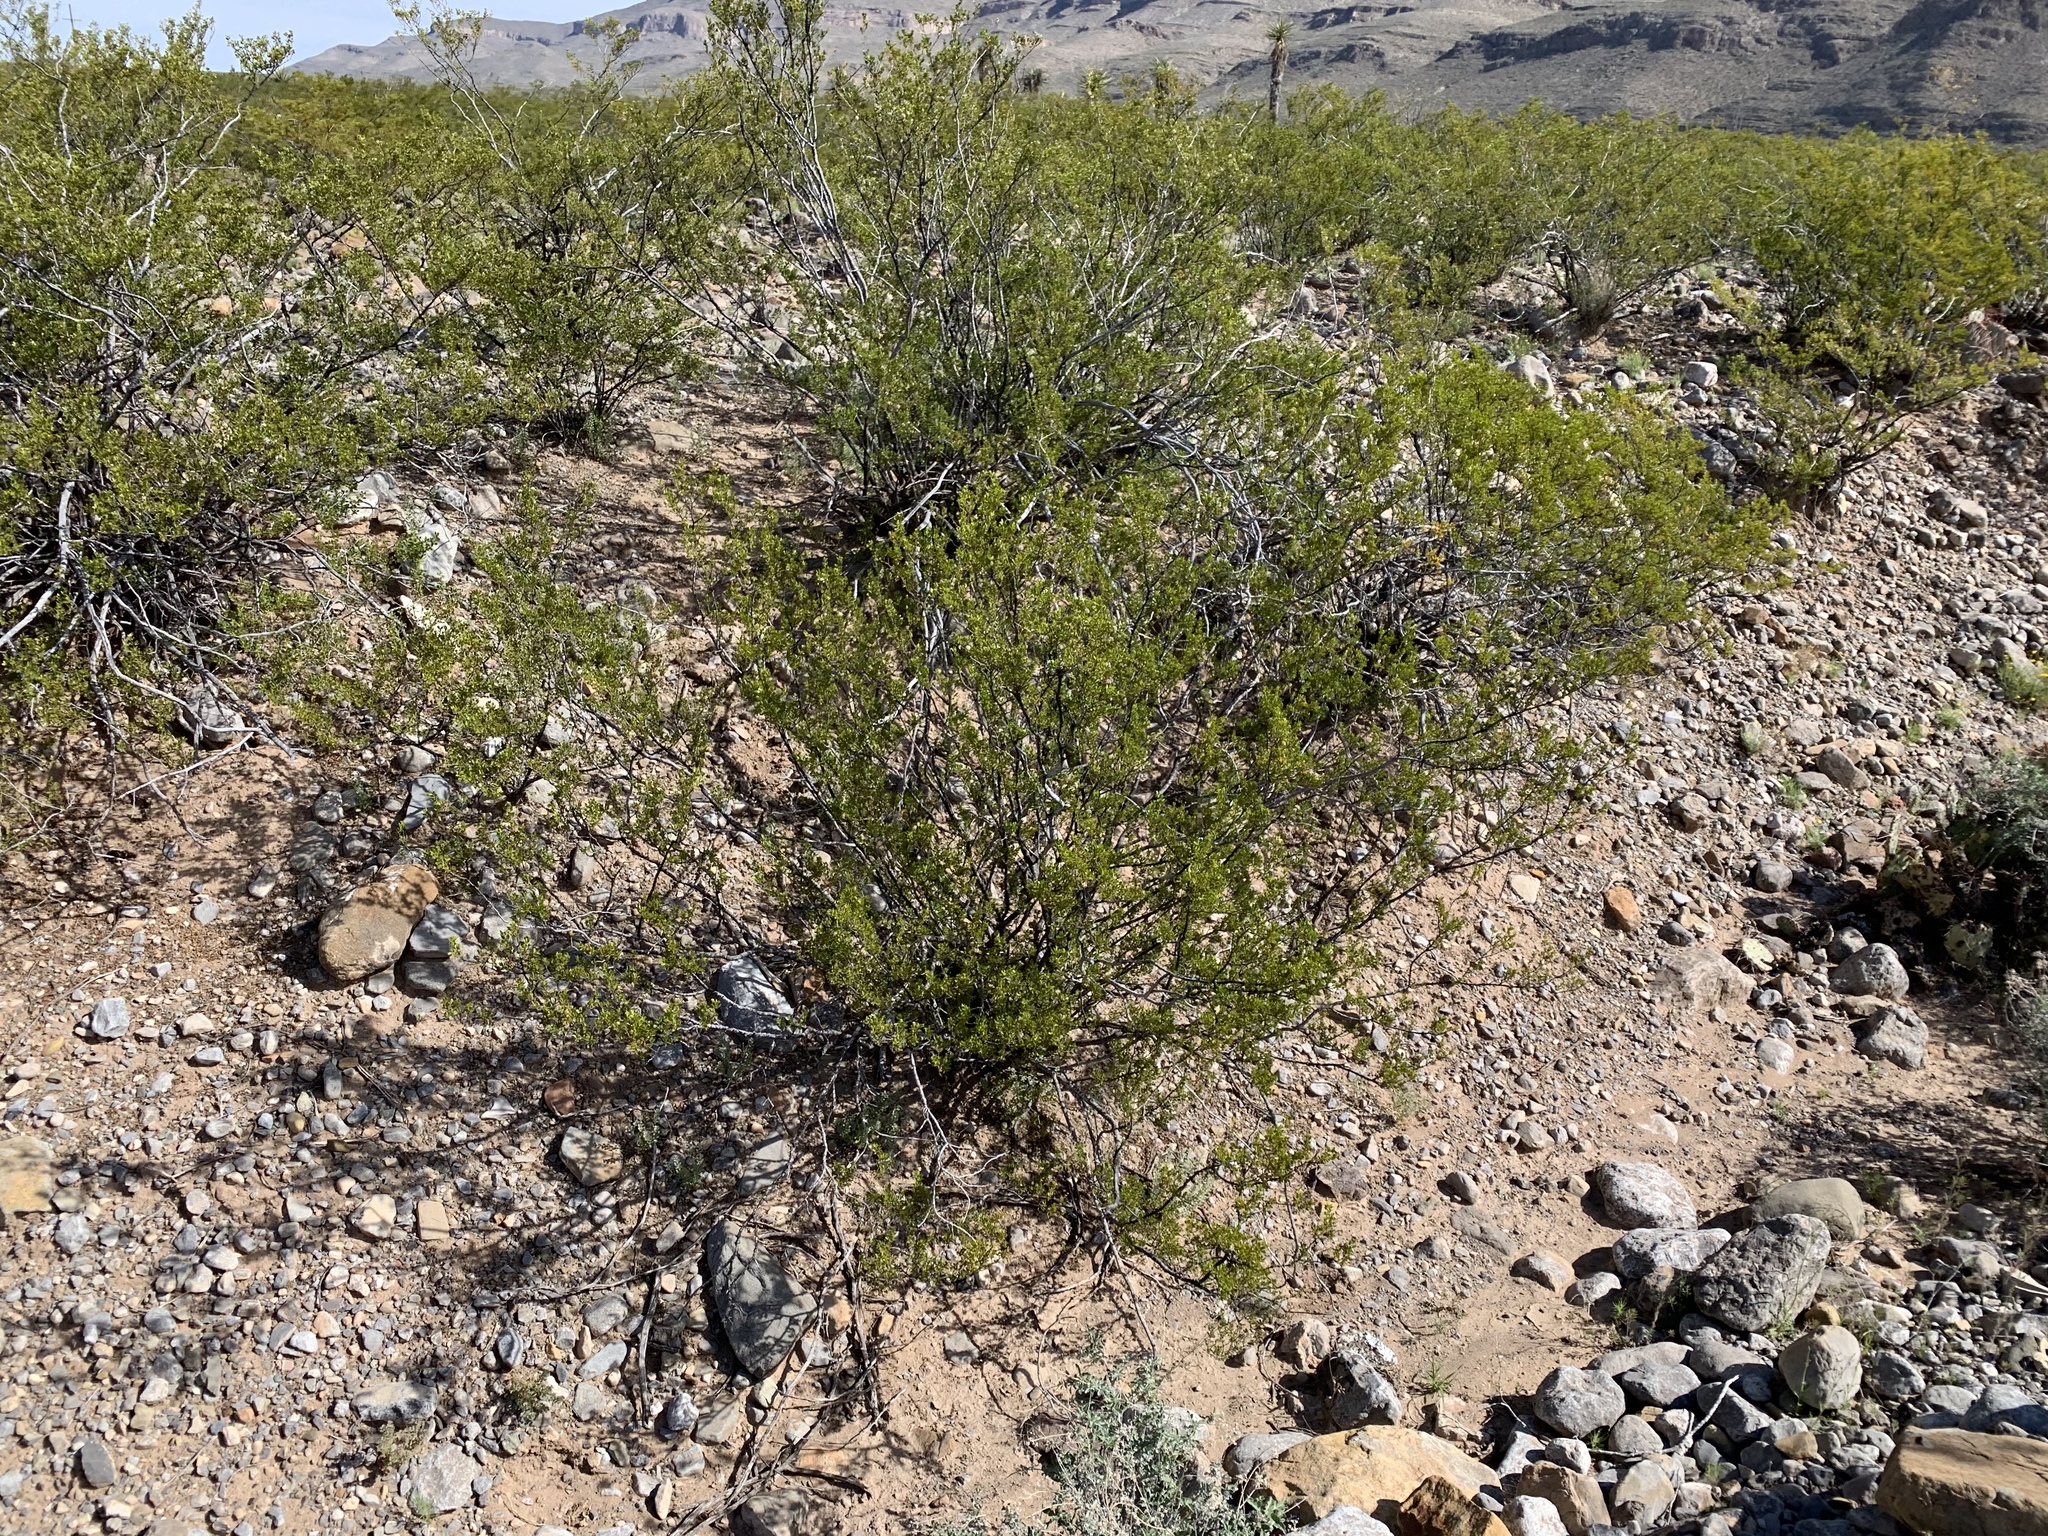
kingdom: Plantae
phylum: Tracheophyta
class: Magnoliopsida
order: Zygophyllales
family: Zygophyllaceae
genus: Larrea
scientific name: Larrea tridentata
